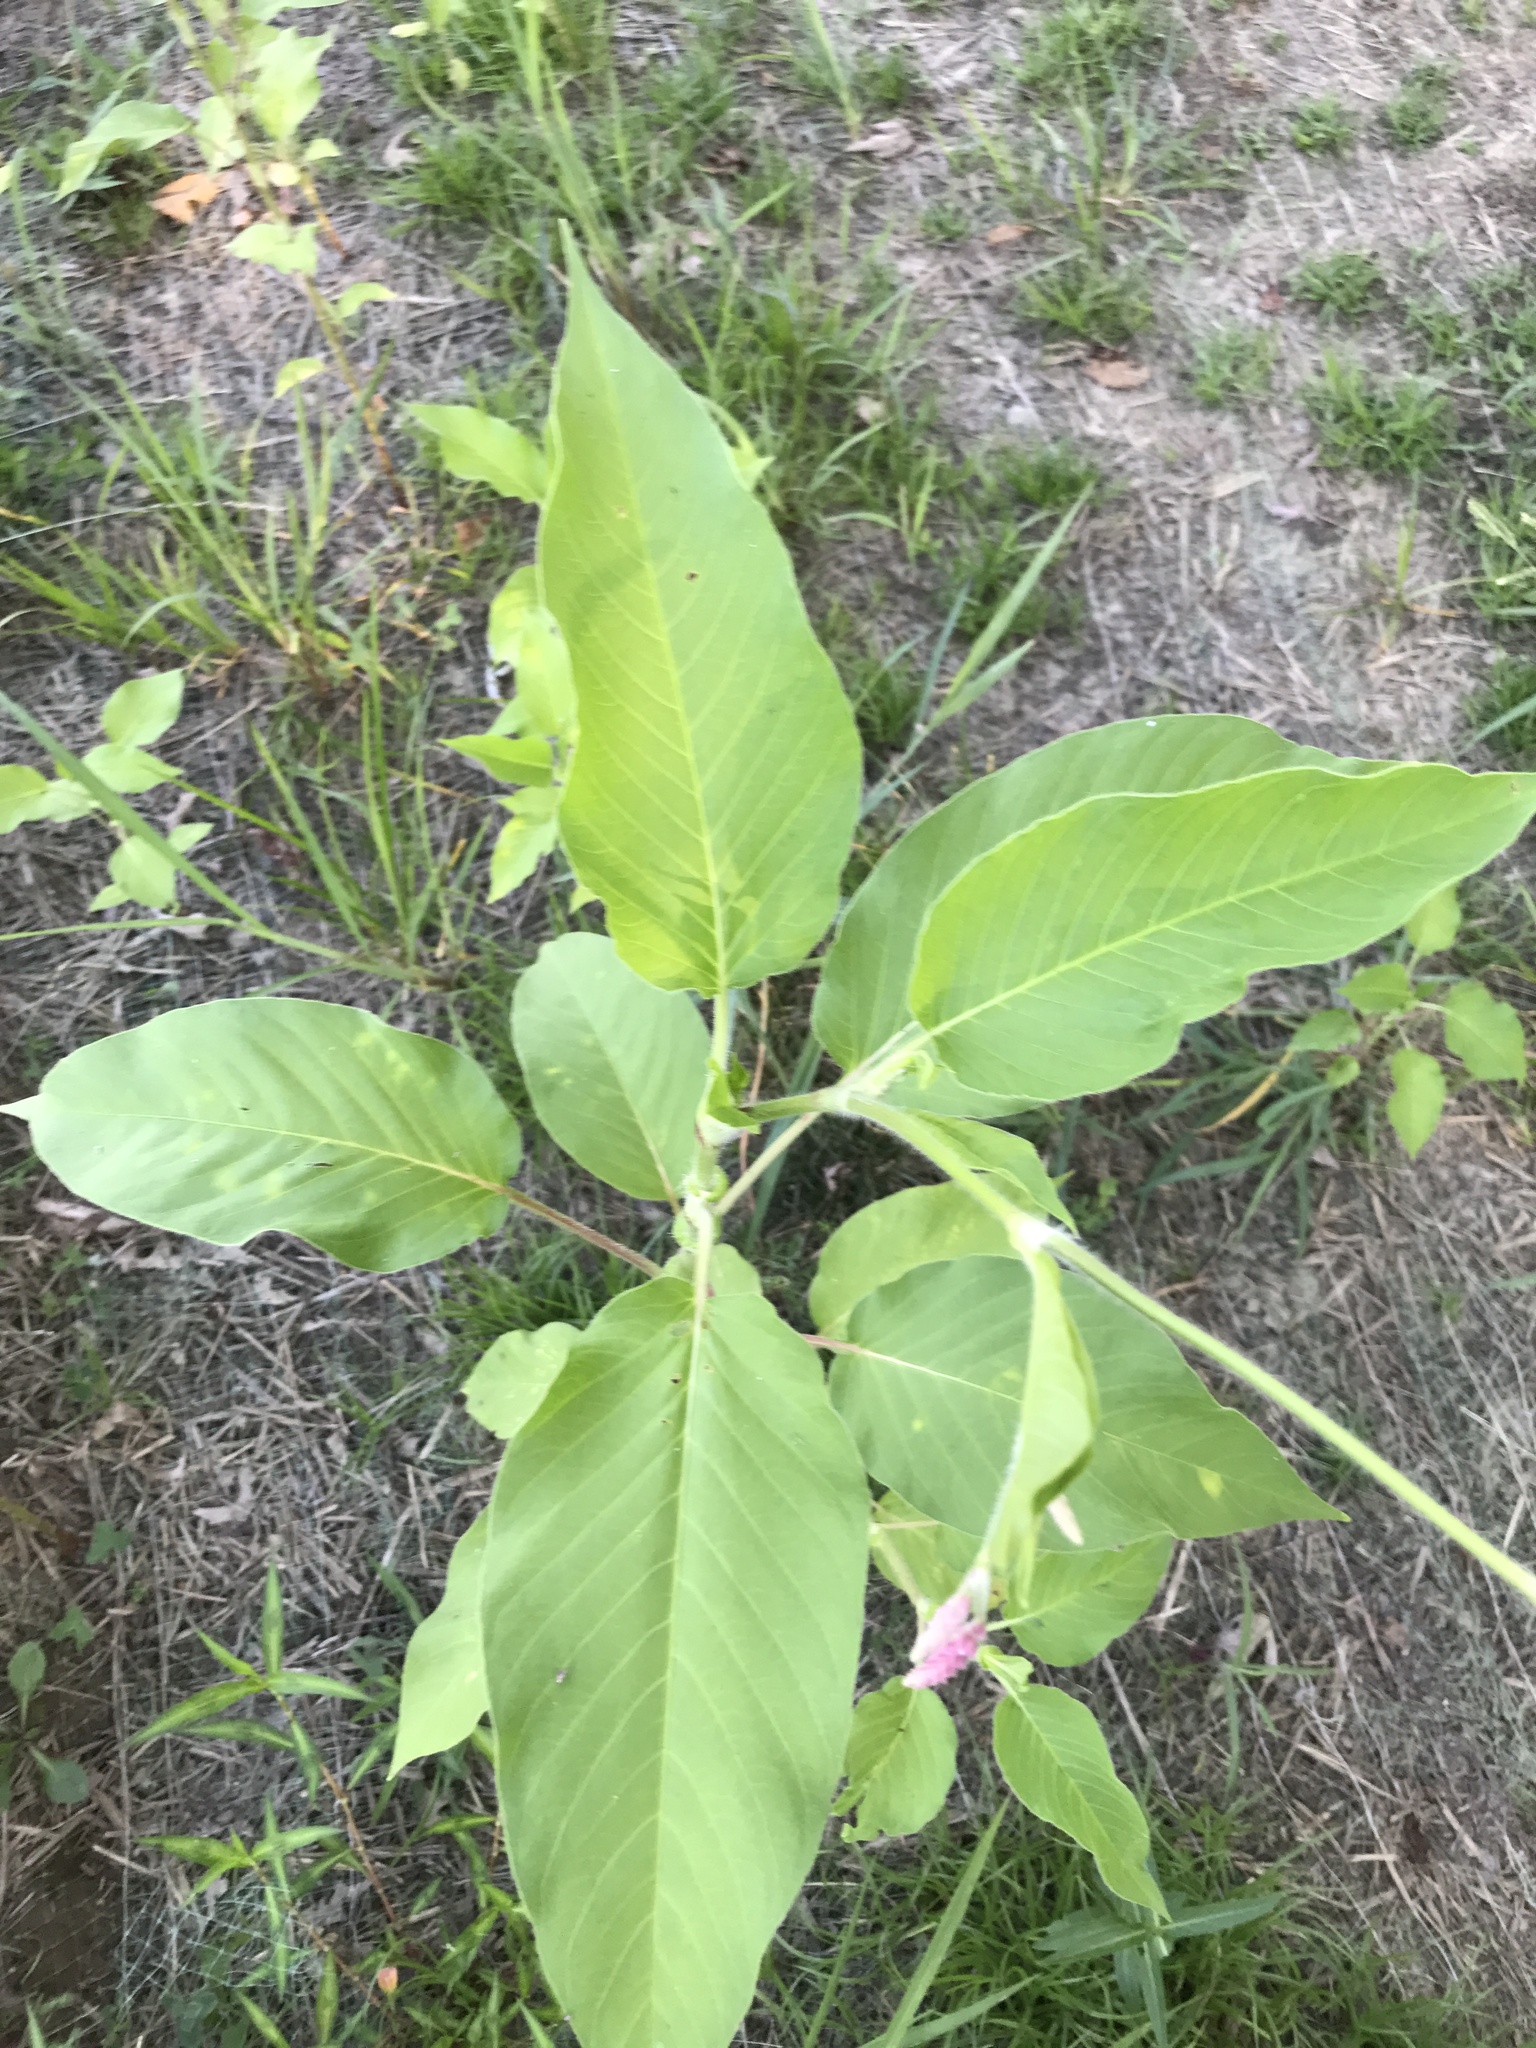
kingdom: Plantae
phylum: Tracheophyta
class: Magnoliopsida
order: Caryophyllales
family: Polygonaceae
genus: Persicaria
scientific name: Persicaria orientalis
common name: Kiss-me-over-the-garden-gate
